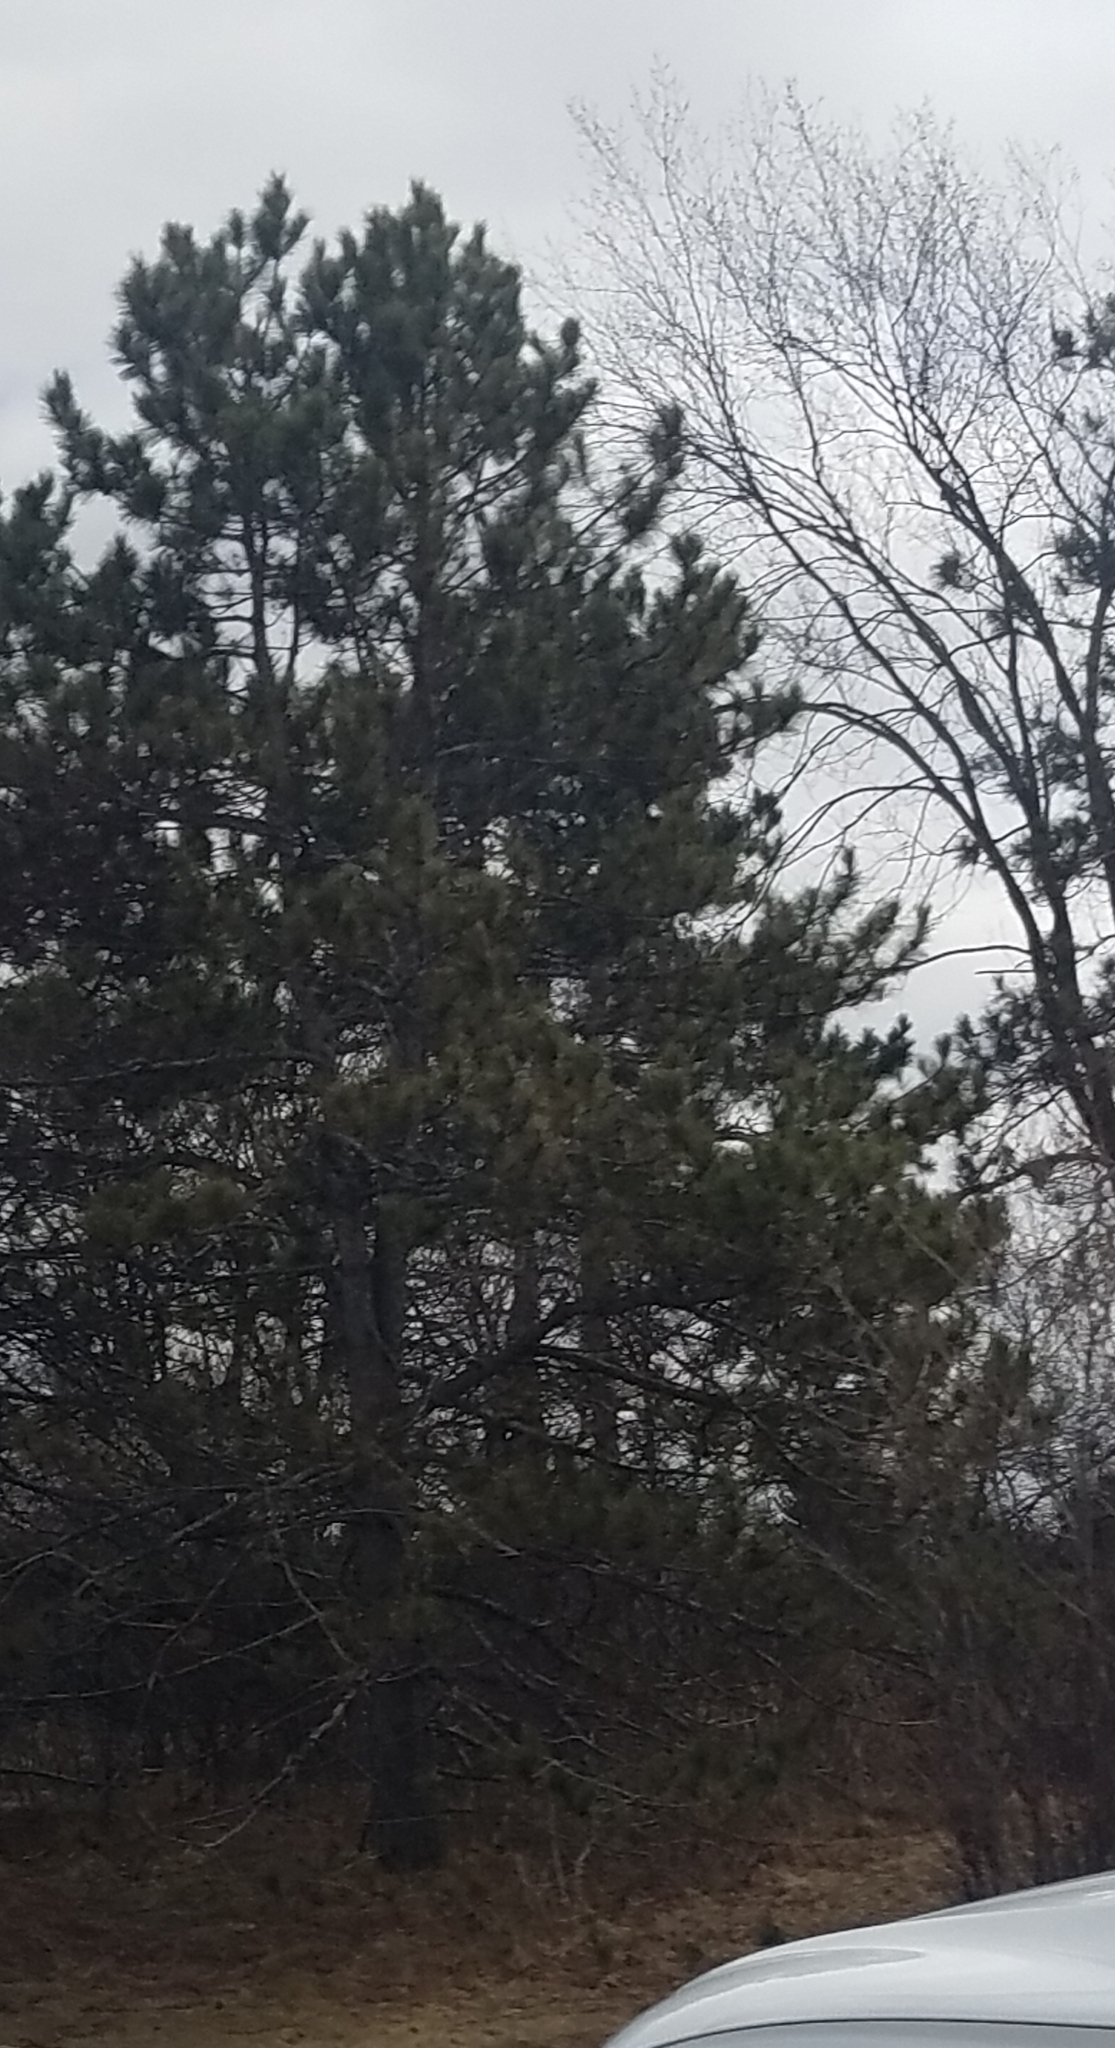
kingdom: Plantae
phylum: Tracheophyta
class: Pinopsida
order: Pinales
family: Pinaceae
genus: Pinus
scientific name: Pinus resinosa
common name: Norway pine
